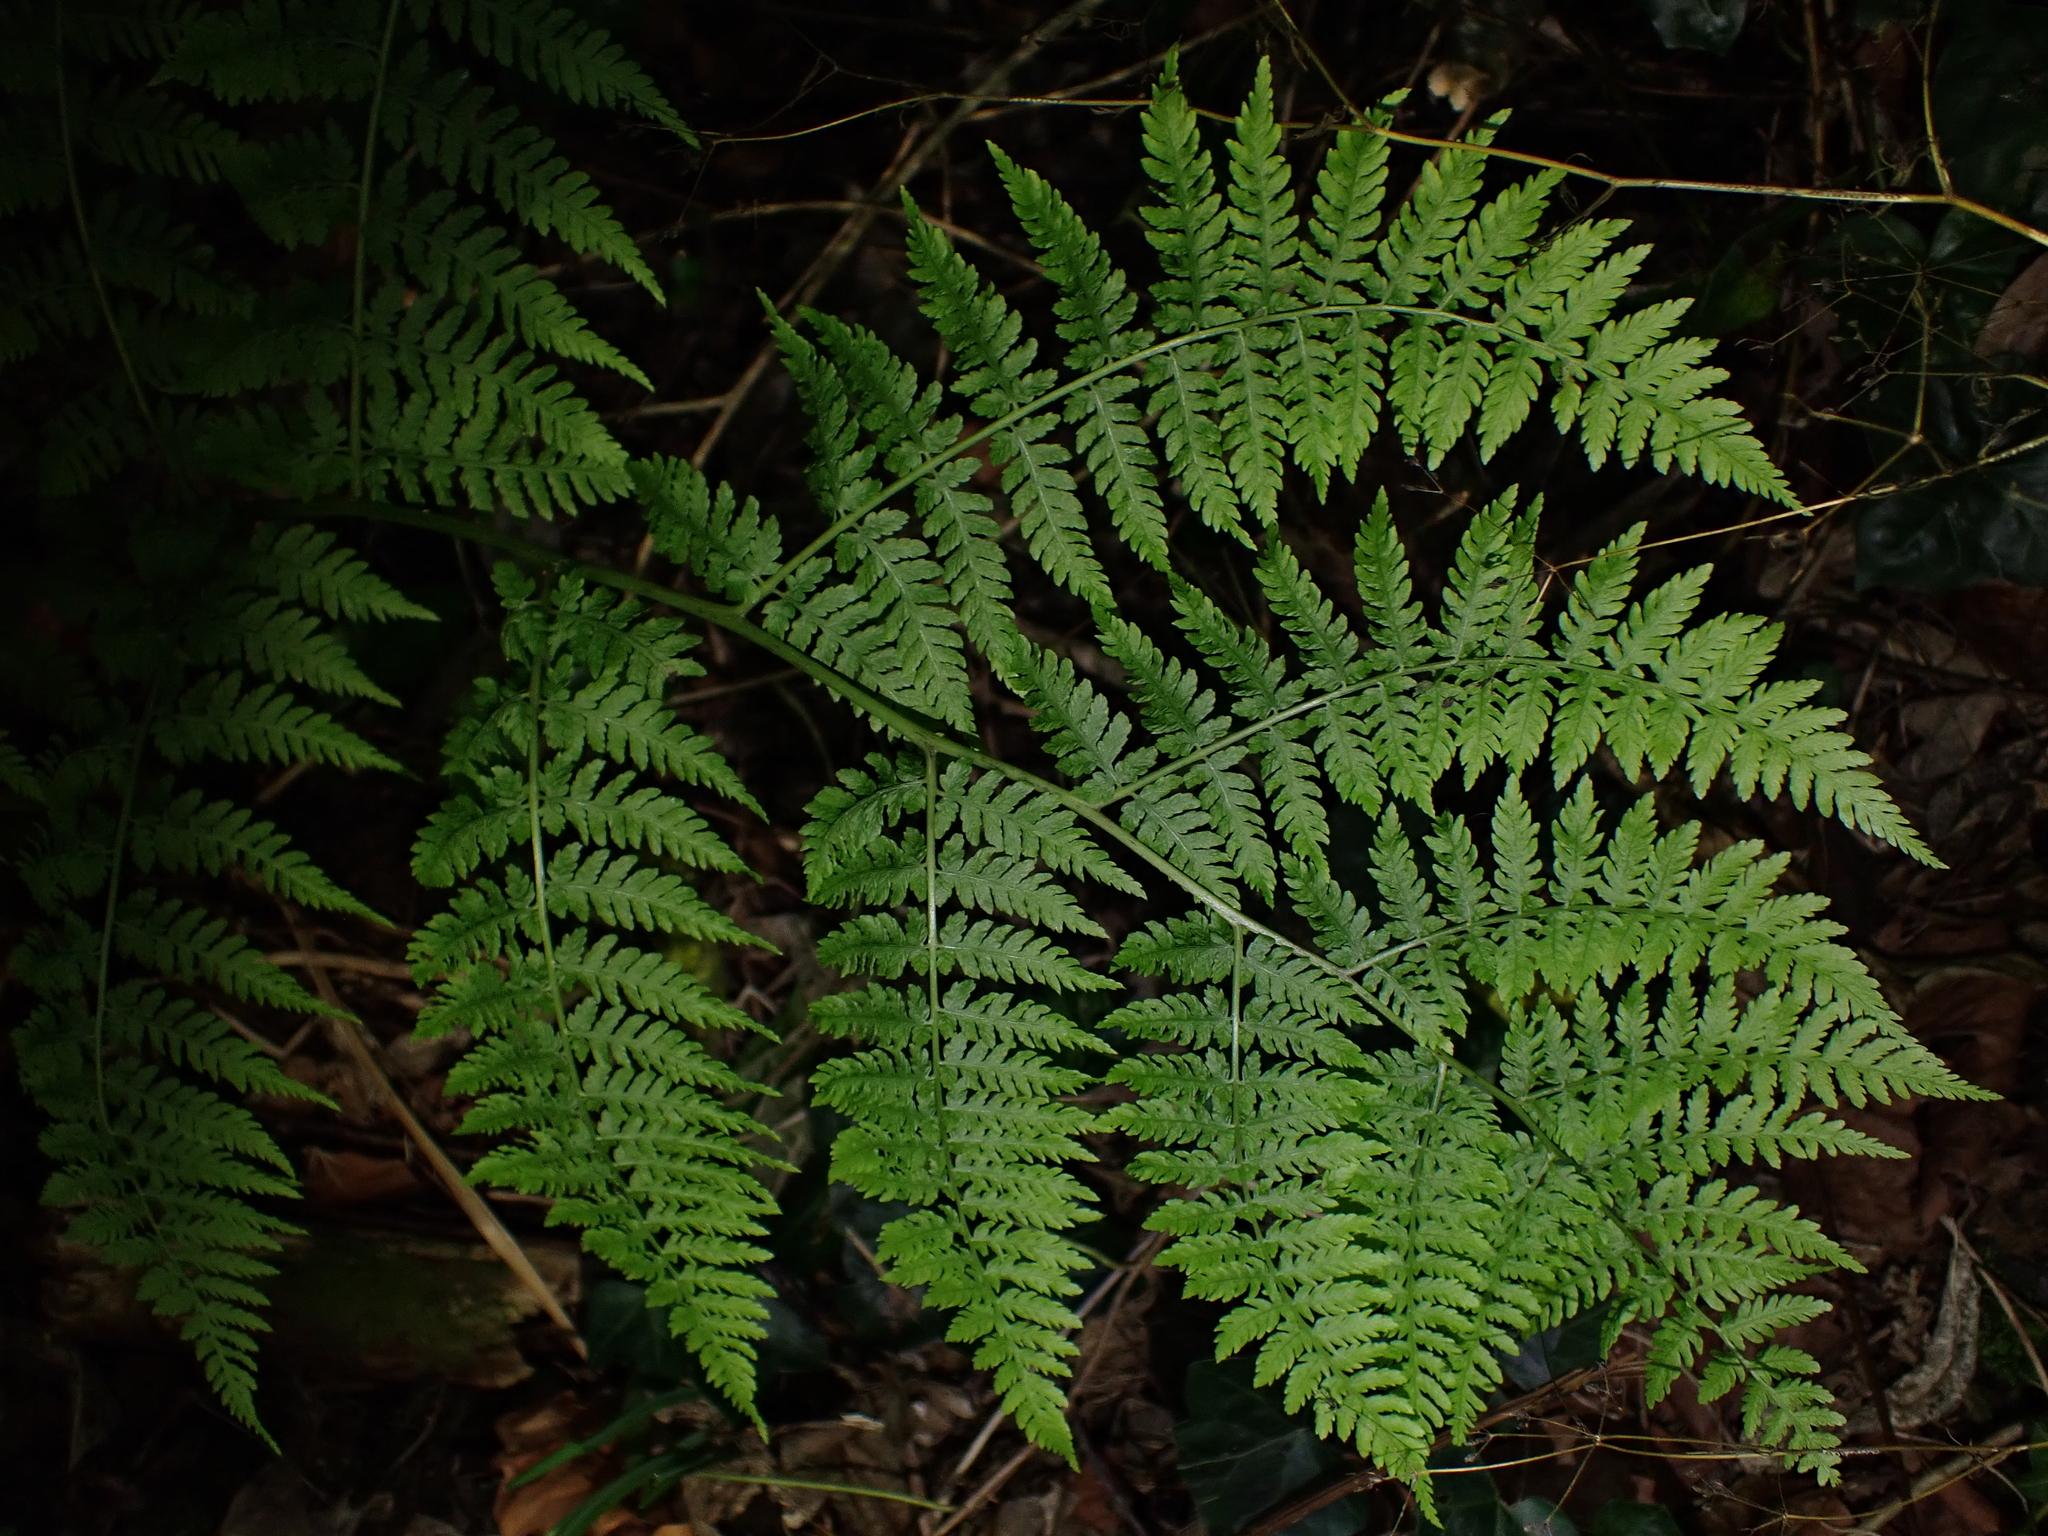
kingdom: Plantae
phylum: Tracheophyta
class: Polypodiopsida
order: Polypodiales
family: Athyriaceae
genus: Diplazium
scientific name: Diplazium australe
